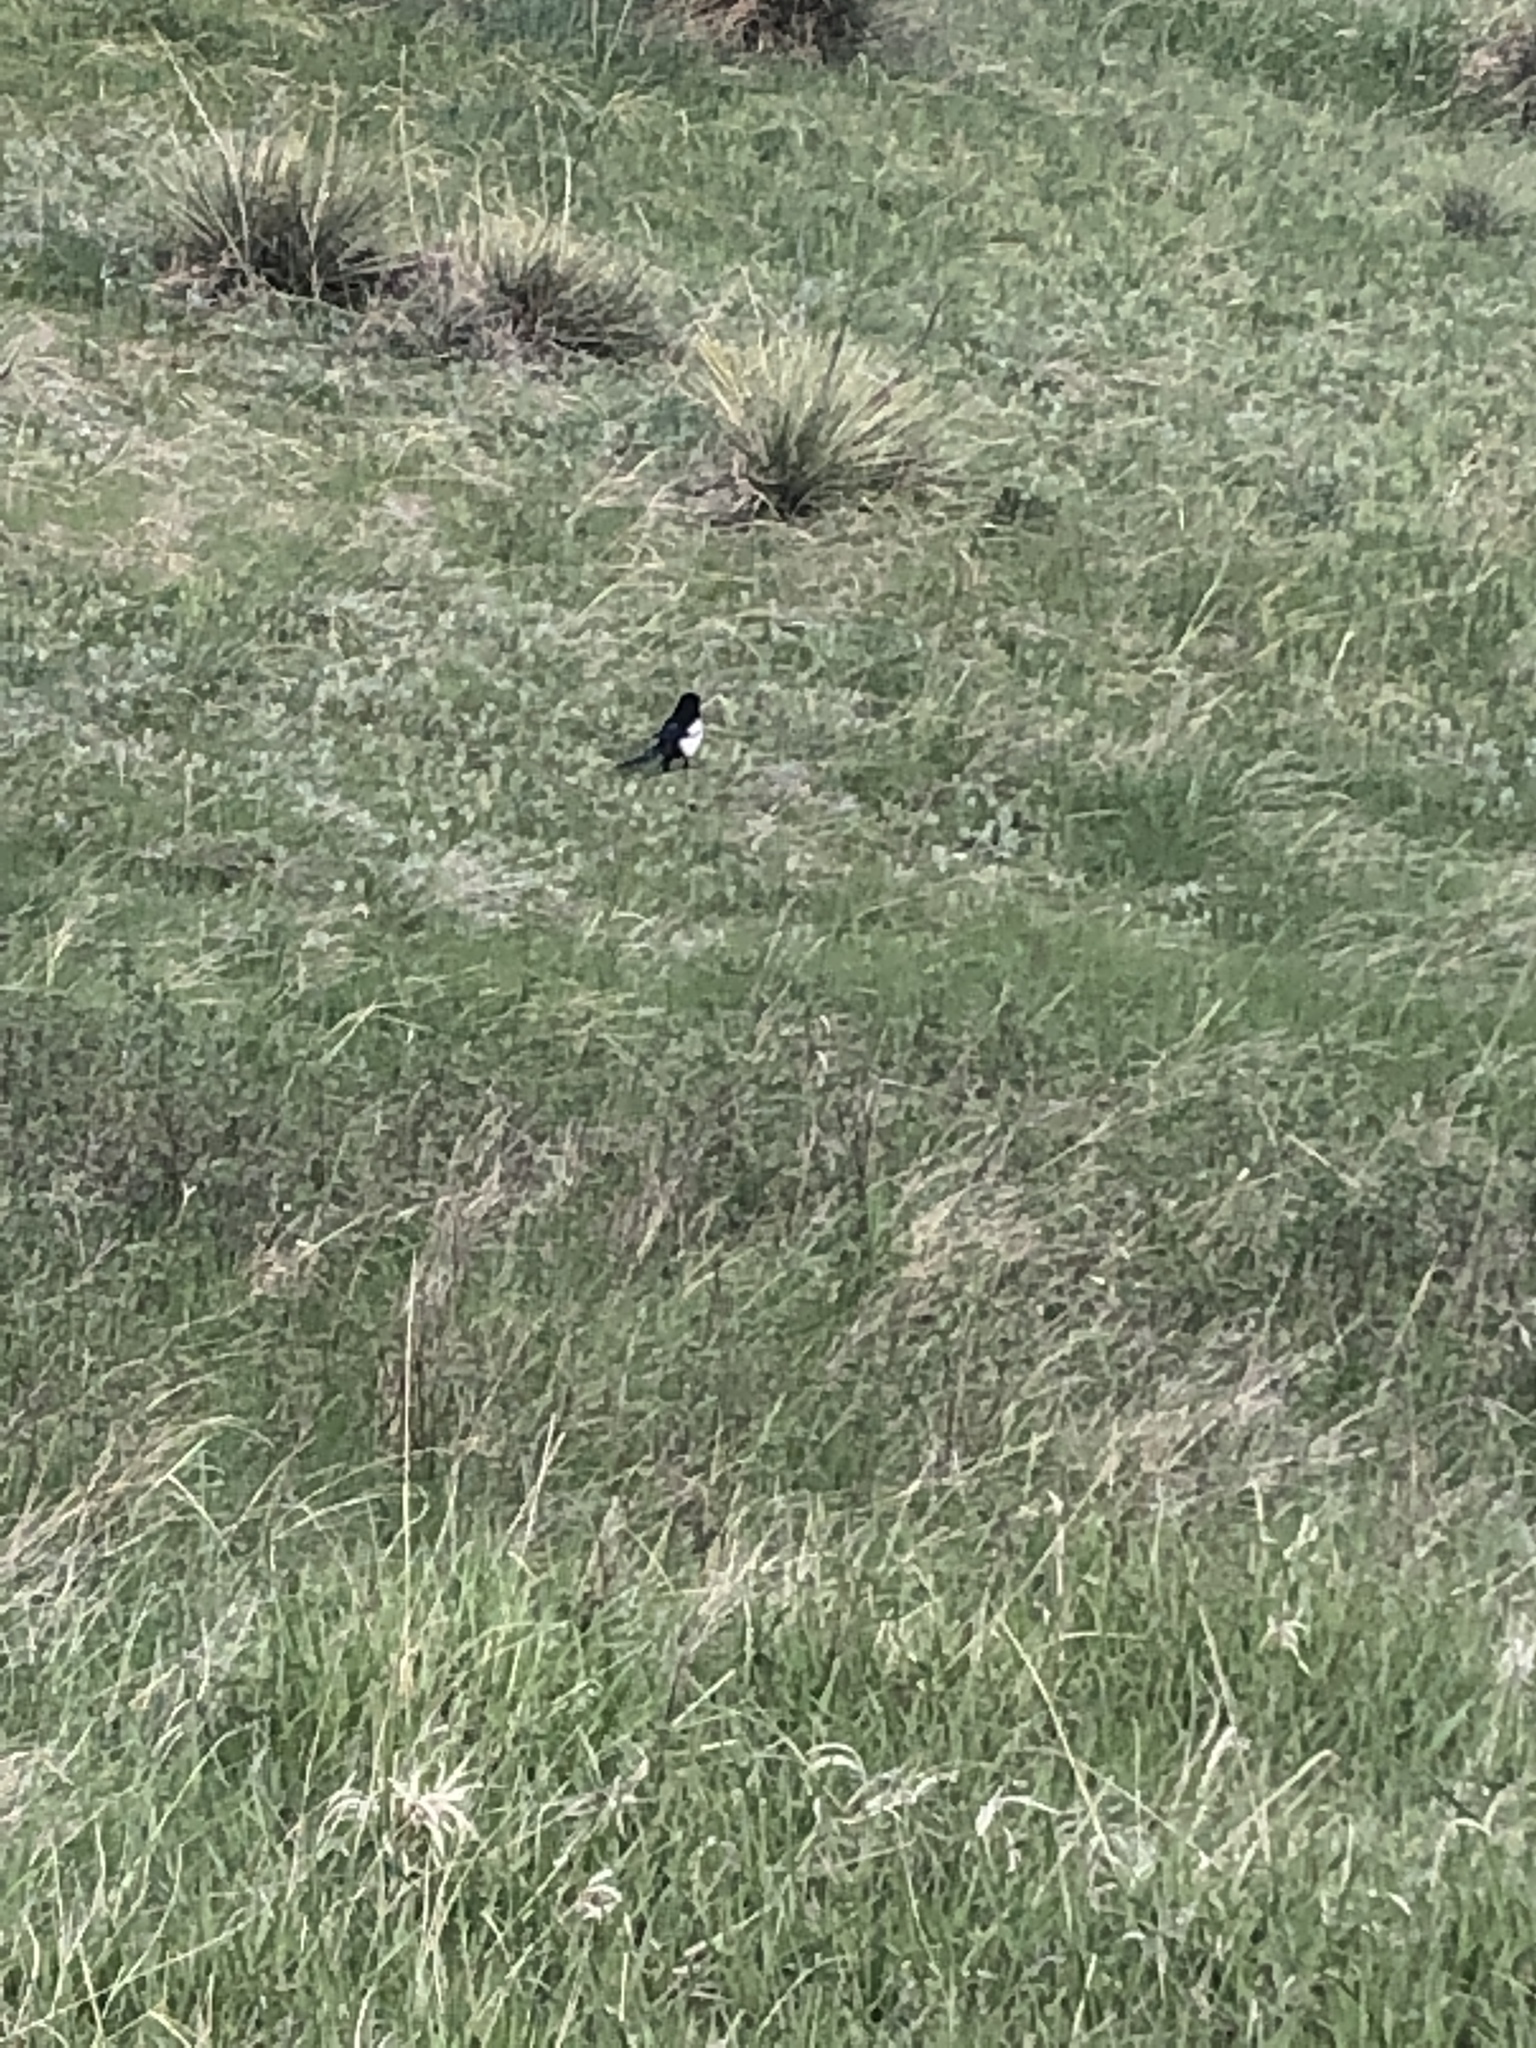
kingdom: Animalia
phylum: Chordata
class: Aves
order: Passeriformes
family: Corvidae
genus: Pica
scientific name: Pica hudsonia
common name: Black-billed magpie
